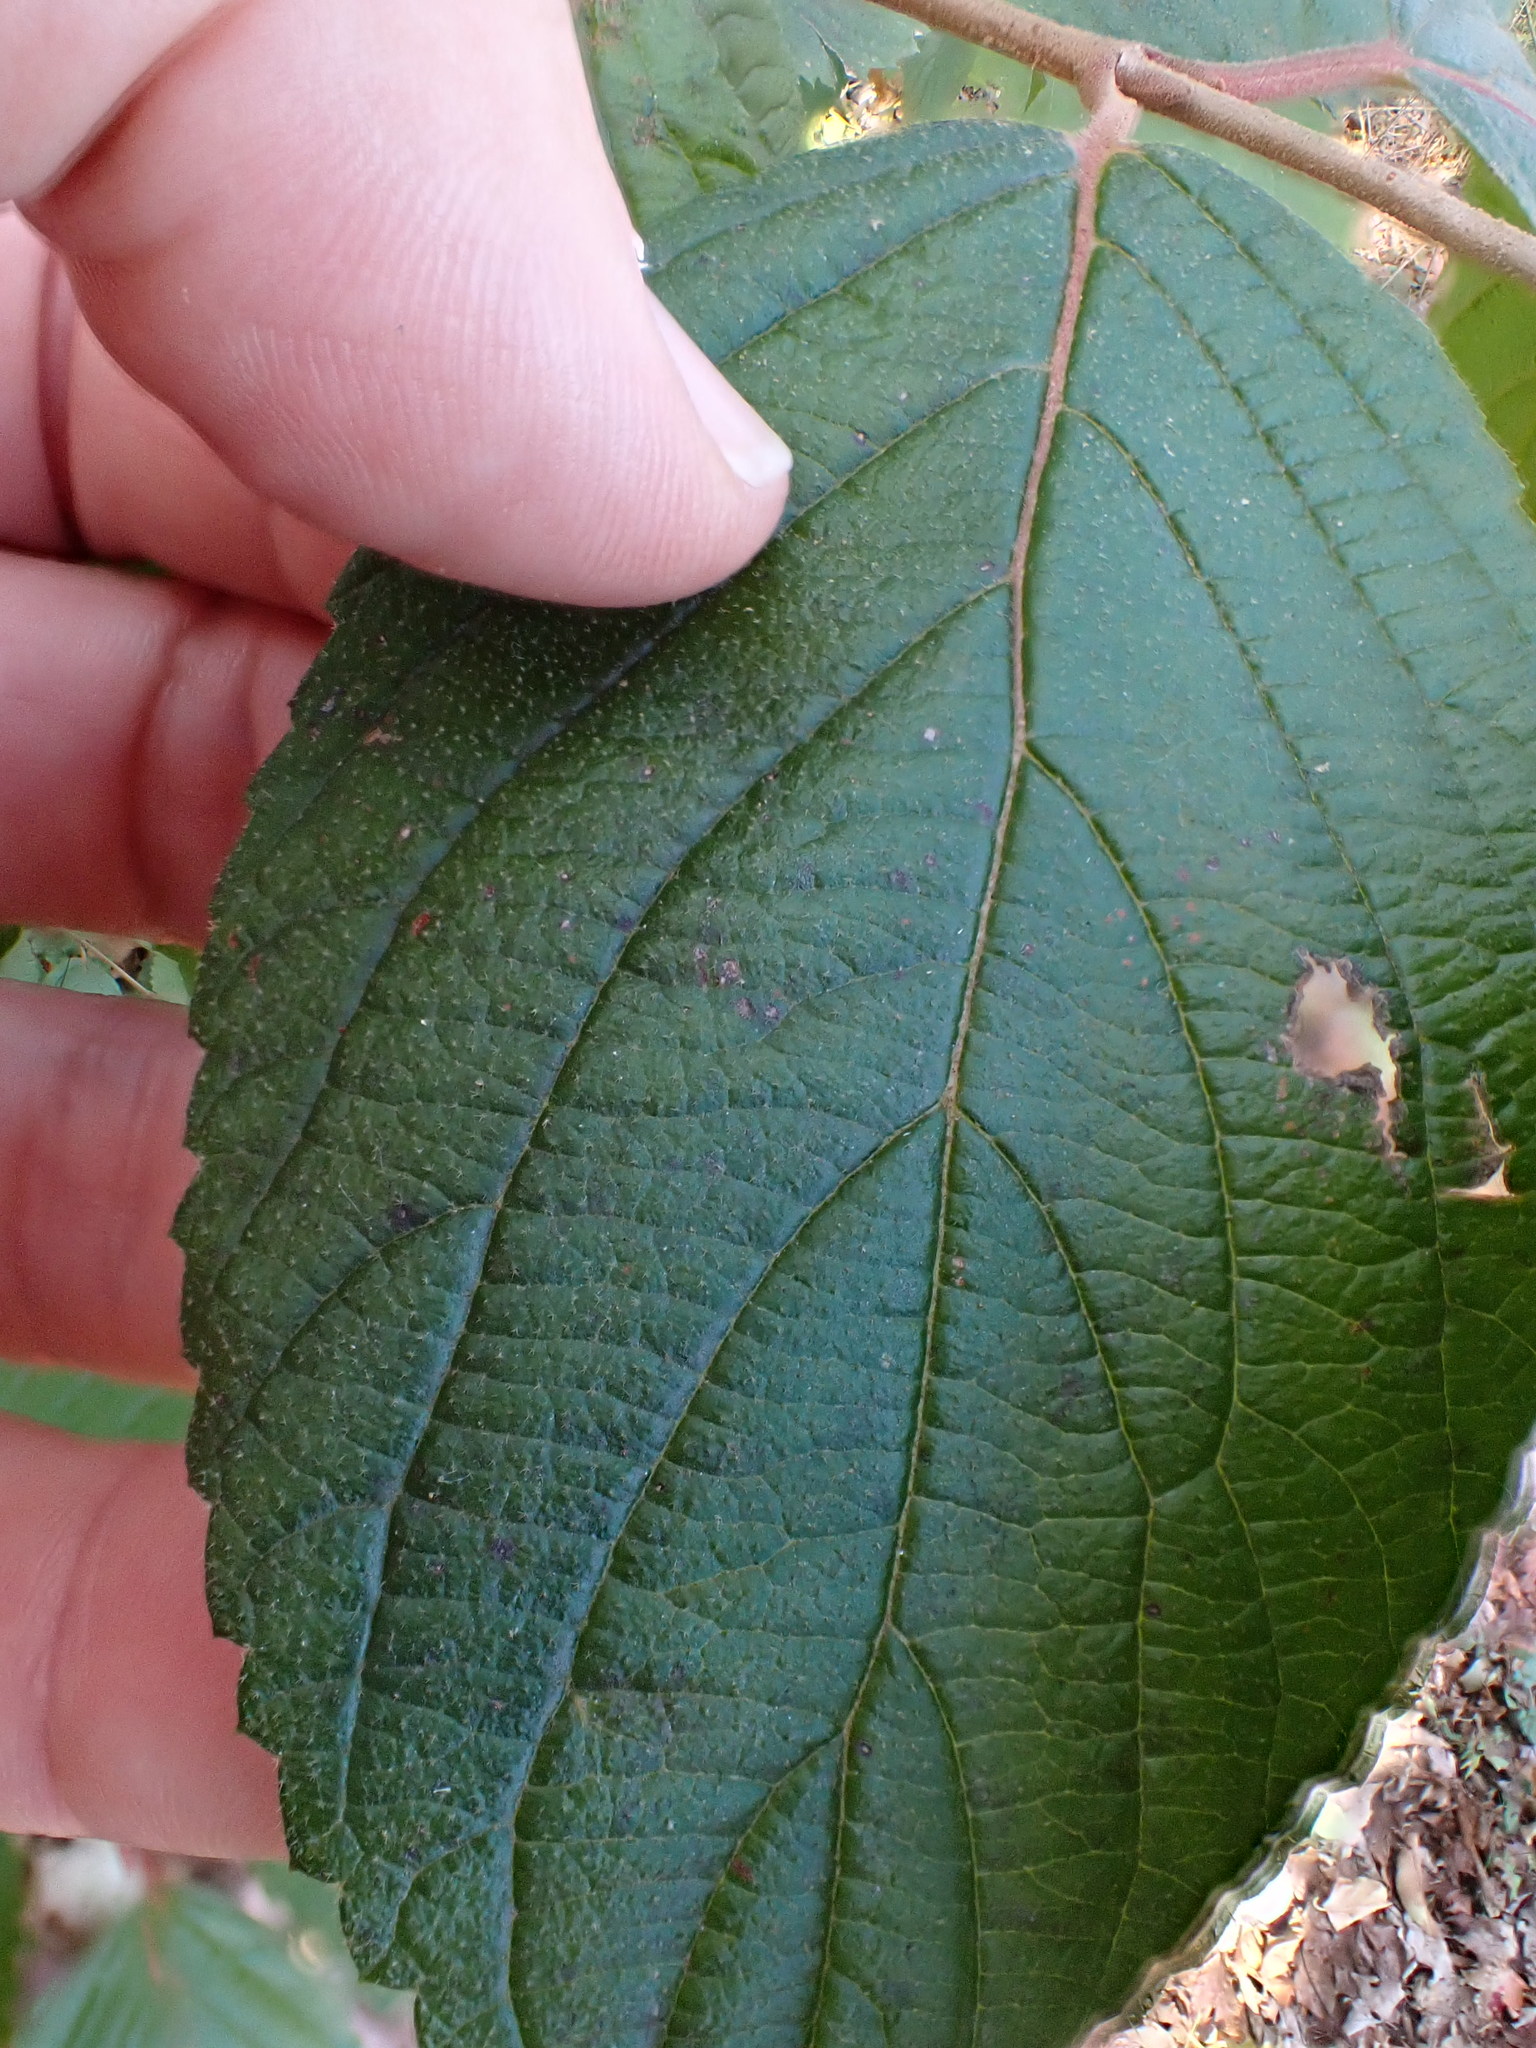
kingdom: Plantae
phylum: Tracheophyta
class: Magnoliopsida
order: Dipsacales
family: Viburnaceae
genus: Viburnum
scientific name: Viburnum plicatum
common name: Japanese snowball
